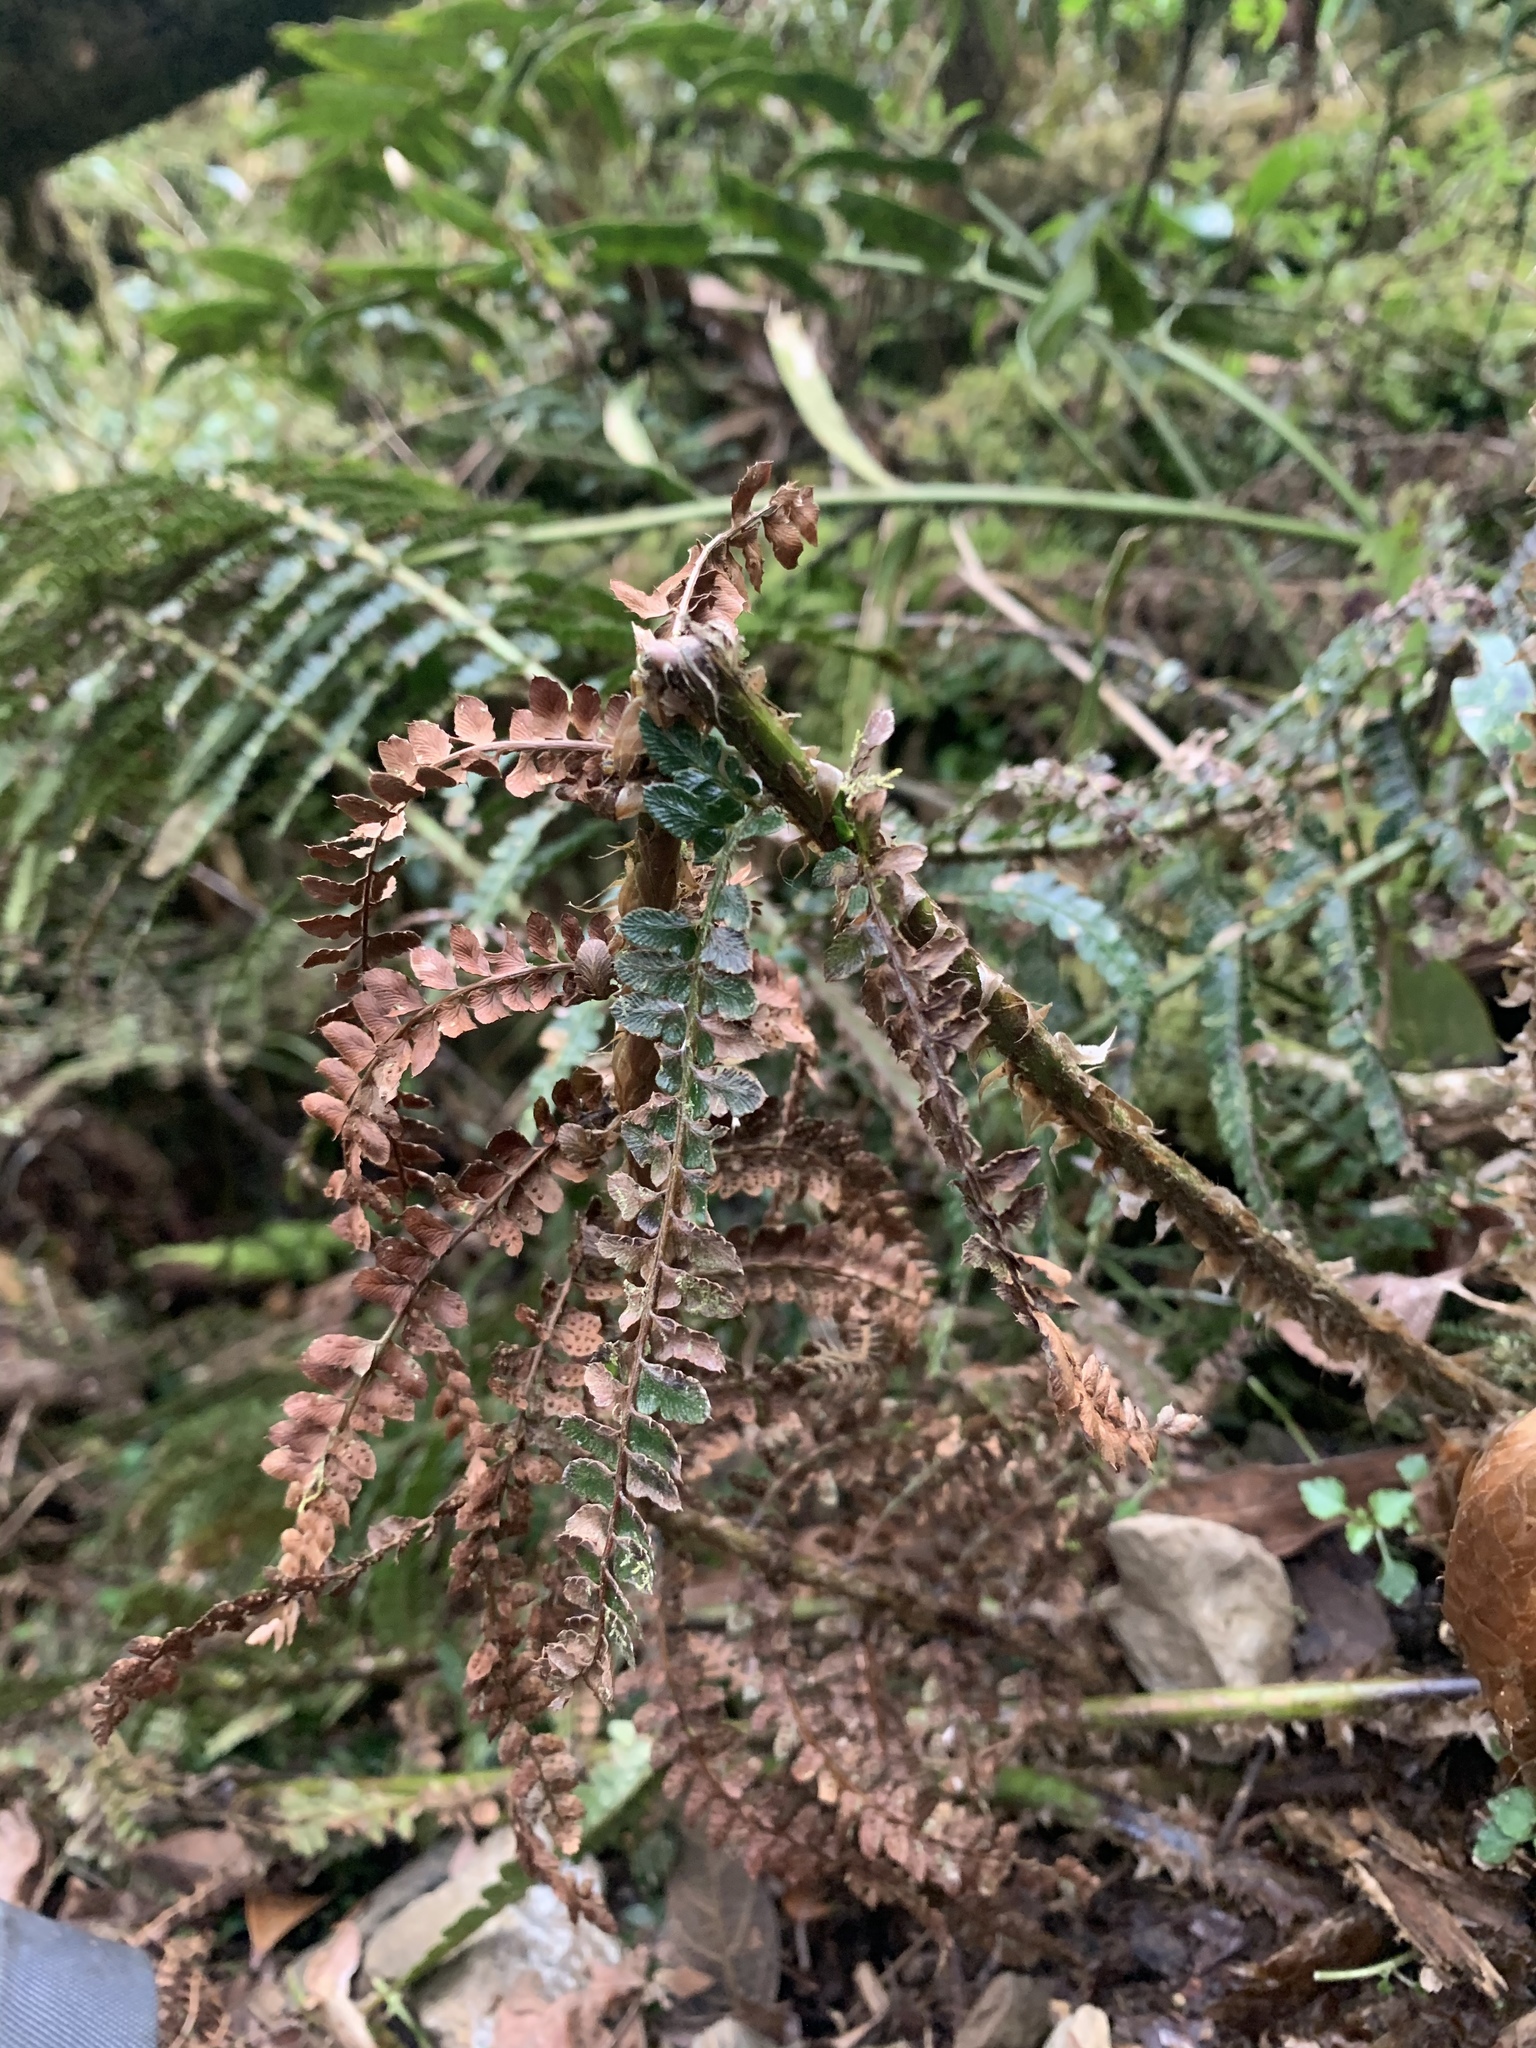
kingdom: Plantae
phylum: Tracheophyta
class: Polypodiopsida
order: Polypodiales
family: Dryopteridaceae
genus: Polystichum
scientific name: Polystichum parvipinnulum
